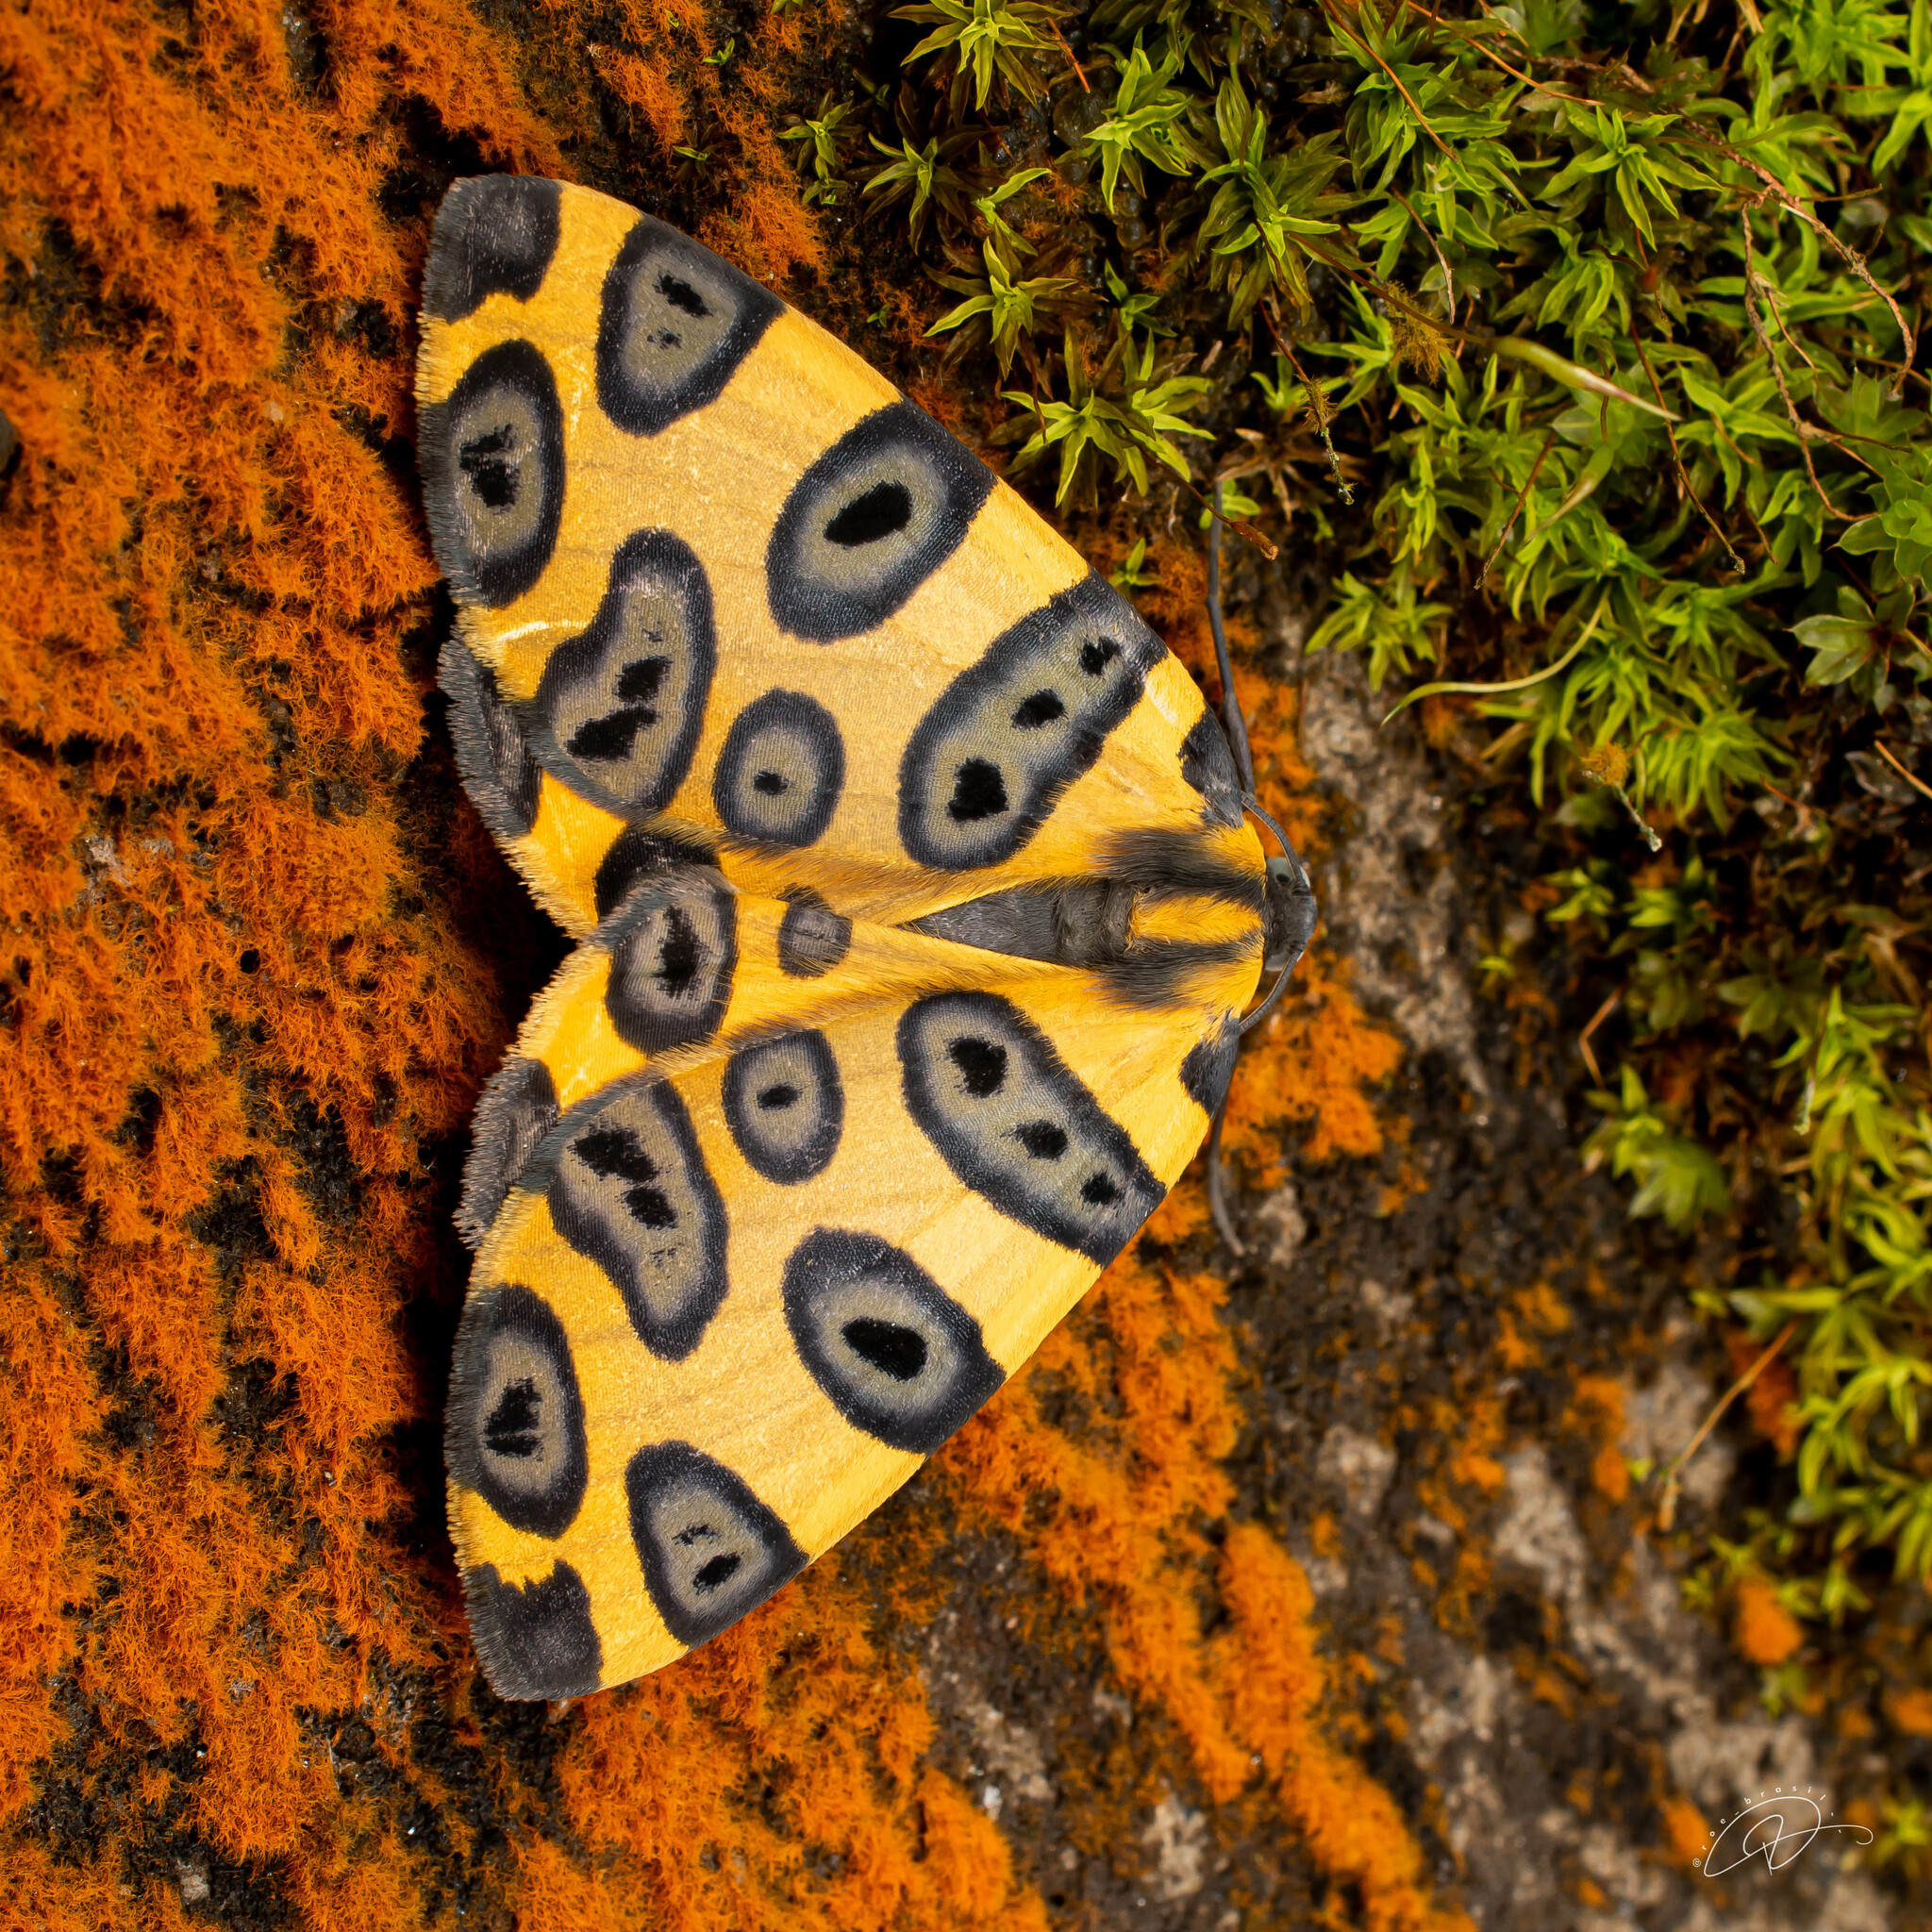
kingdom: Animalia
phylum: Arthropoda
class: Insecta
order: Lepidoptera
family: Geometridae
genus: Pantherodes
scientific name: Pantherodes pardalaria
